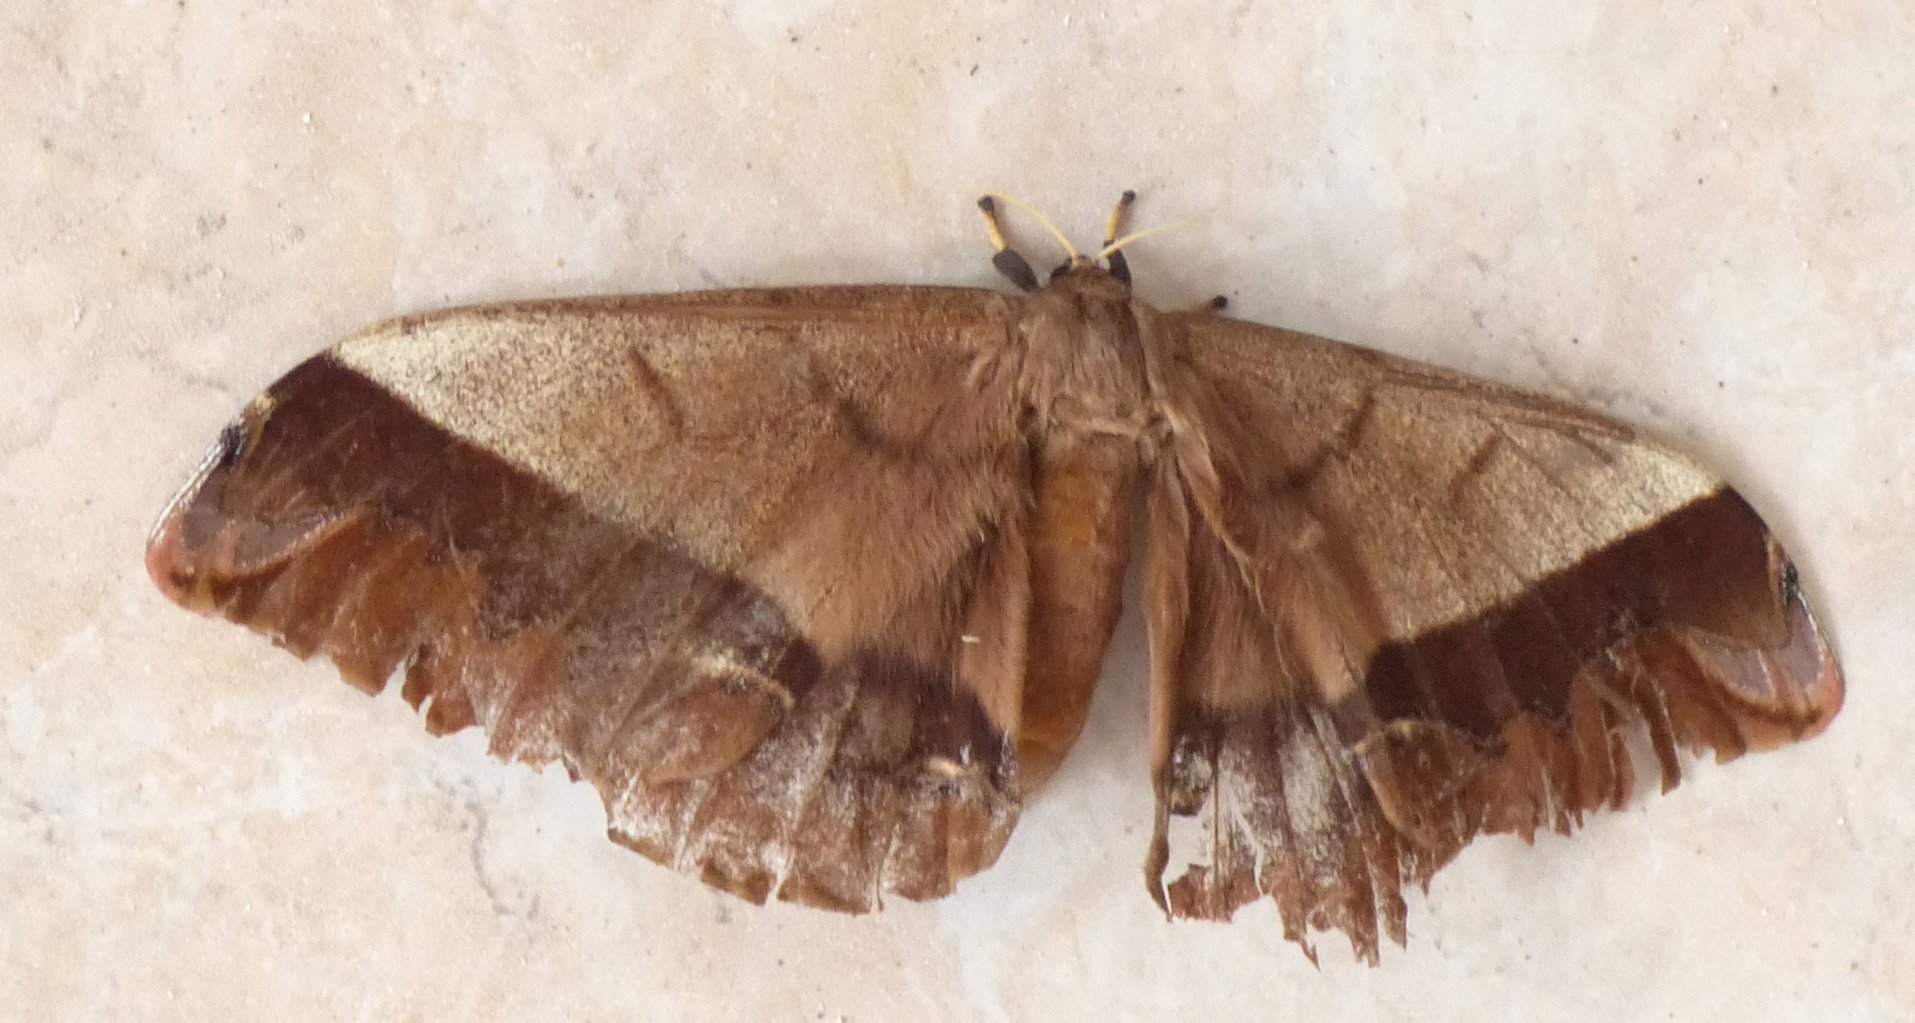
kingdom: Animalia
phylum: Arthropoda
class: Insecta
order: Lepidoptera
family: Saturniidae
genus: Arsenura
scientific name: Arsenura armida
